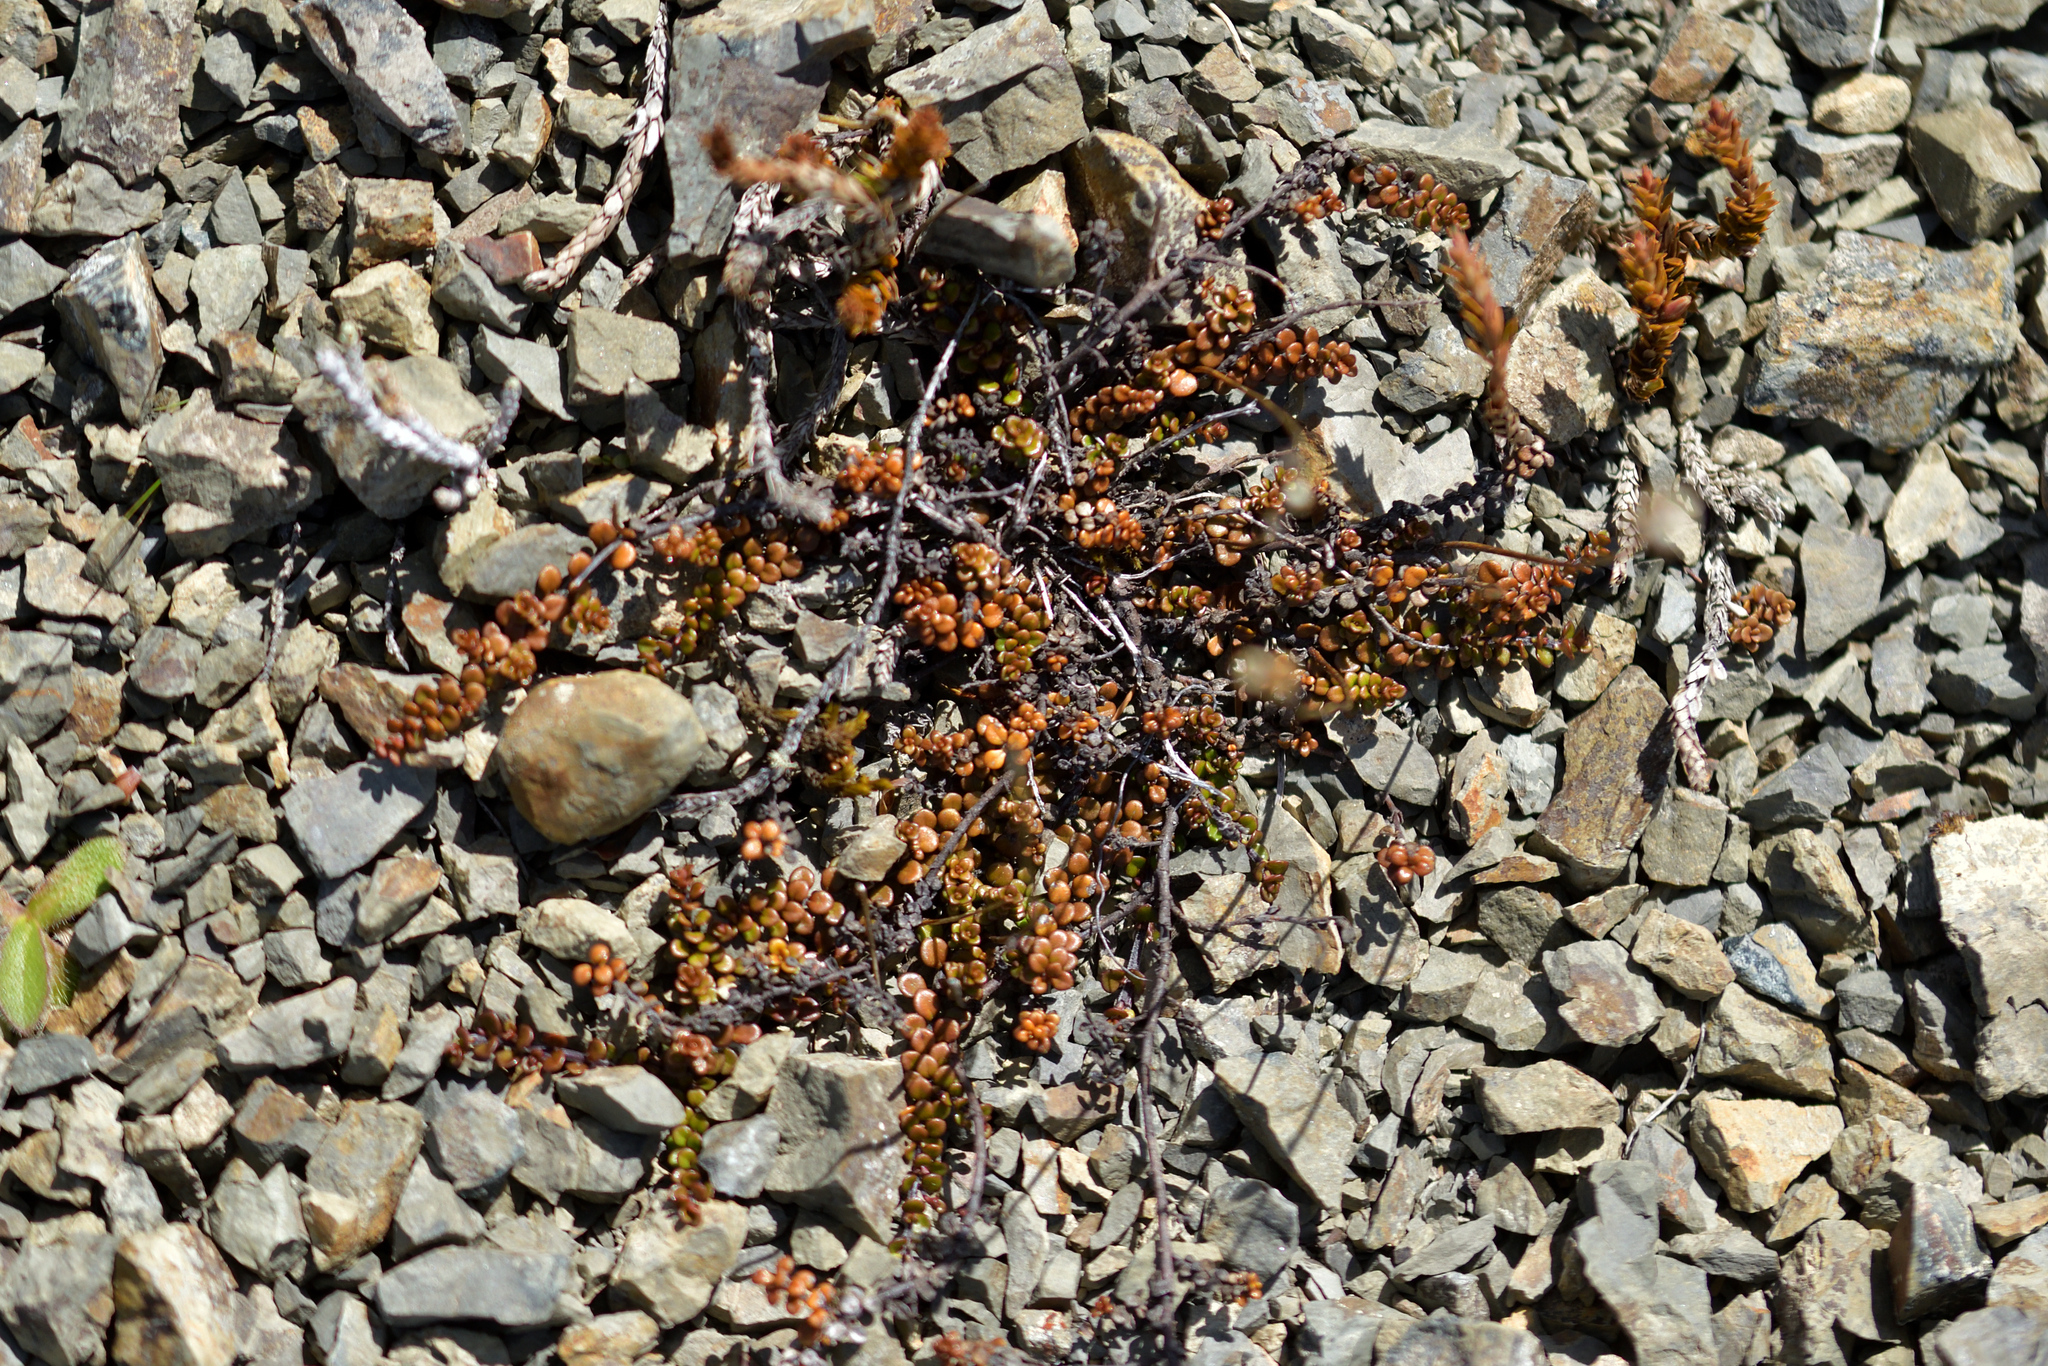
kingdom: Plantae
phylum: Tracheophyta
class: Magnoliopsida
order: Lamiales
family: Plantaginaceae
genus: Veronica
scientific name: Veronica decora
